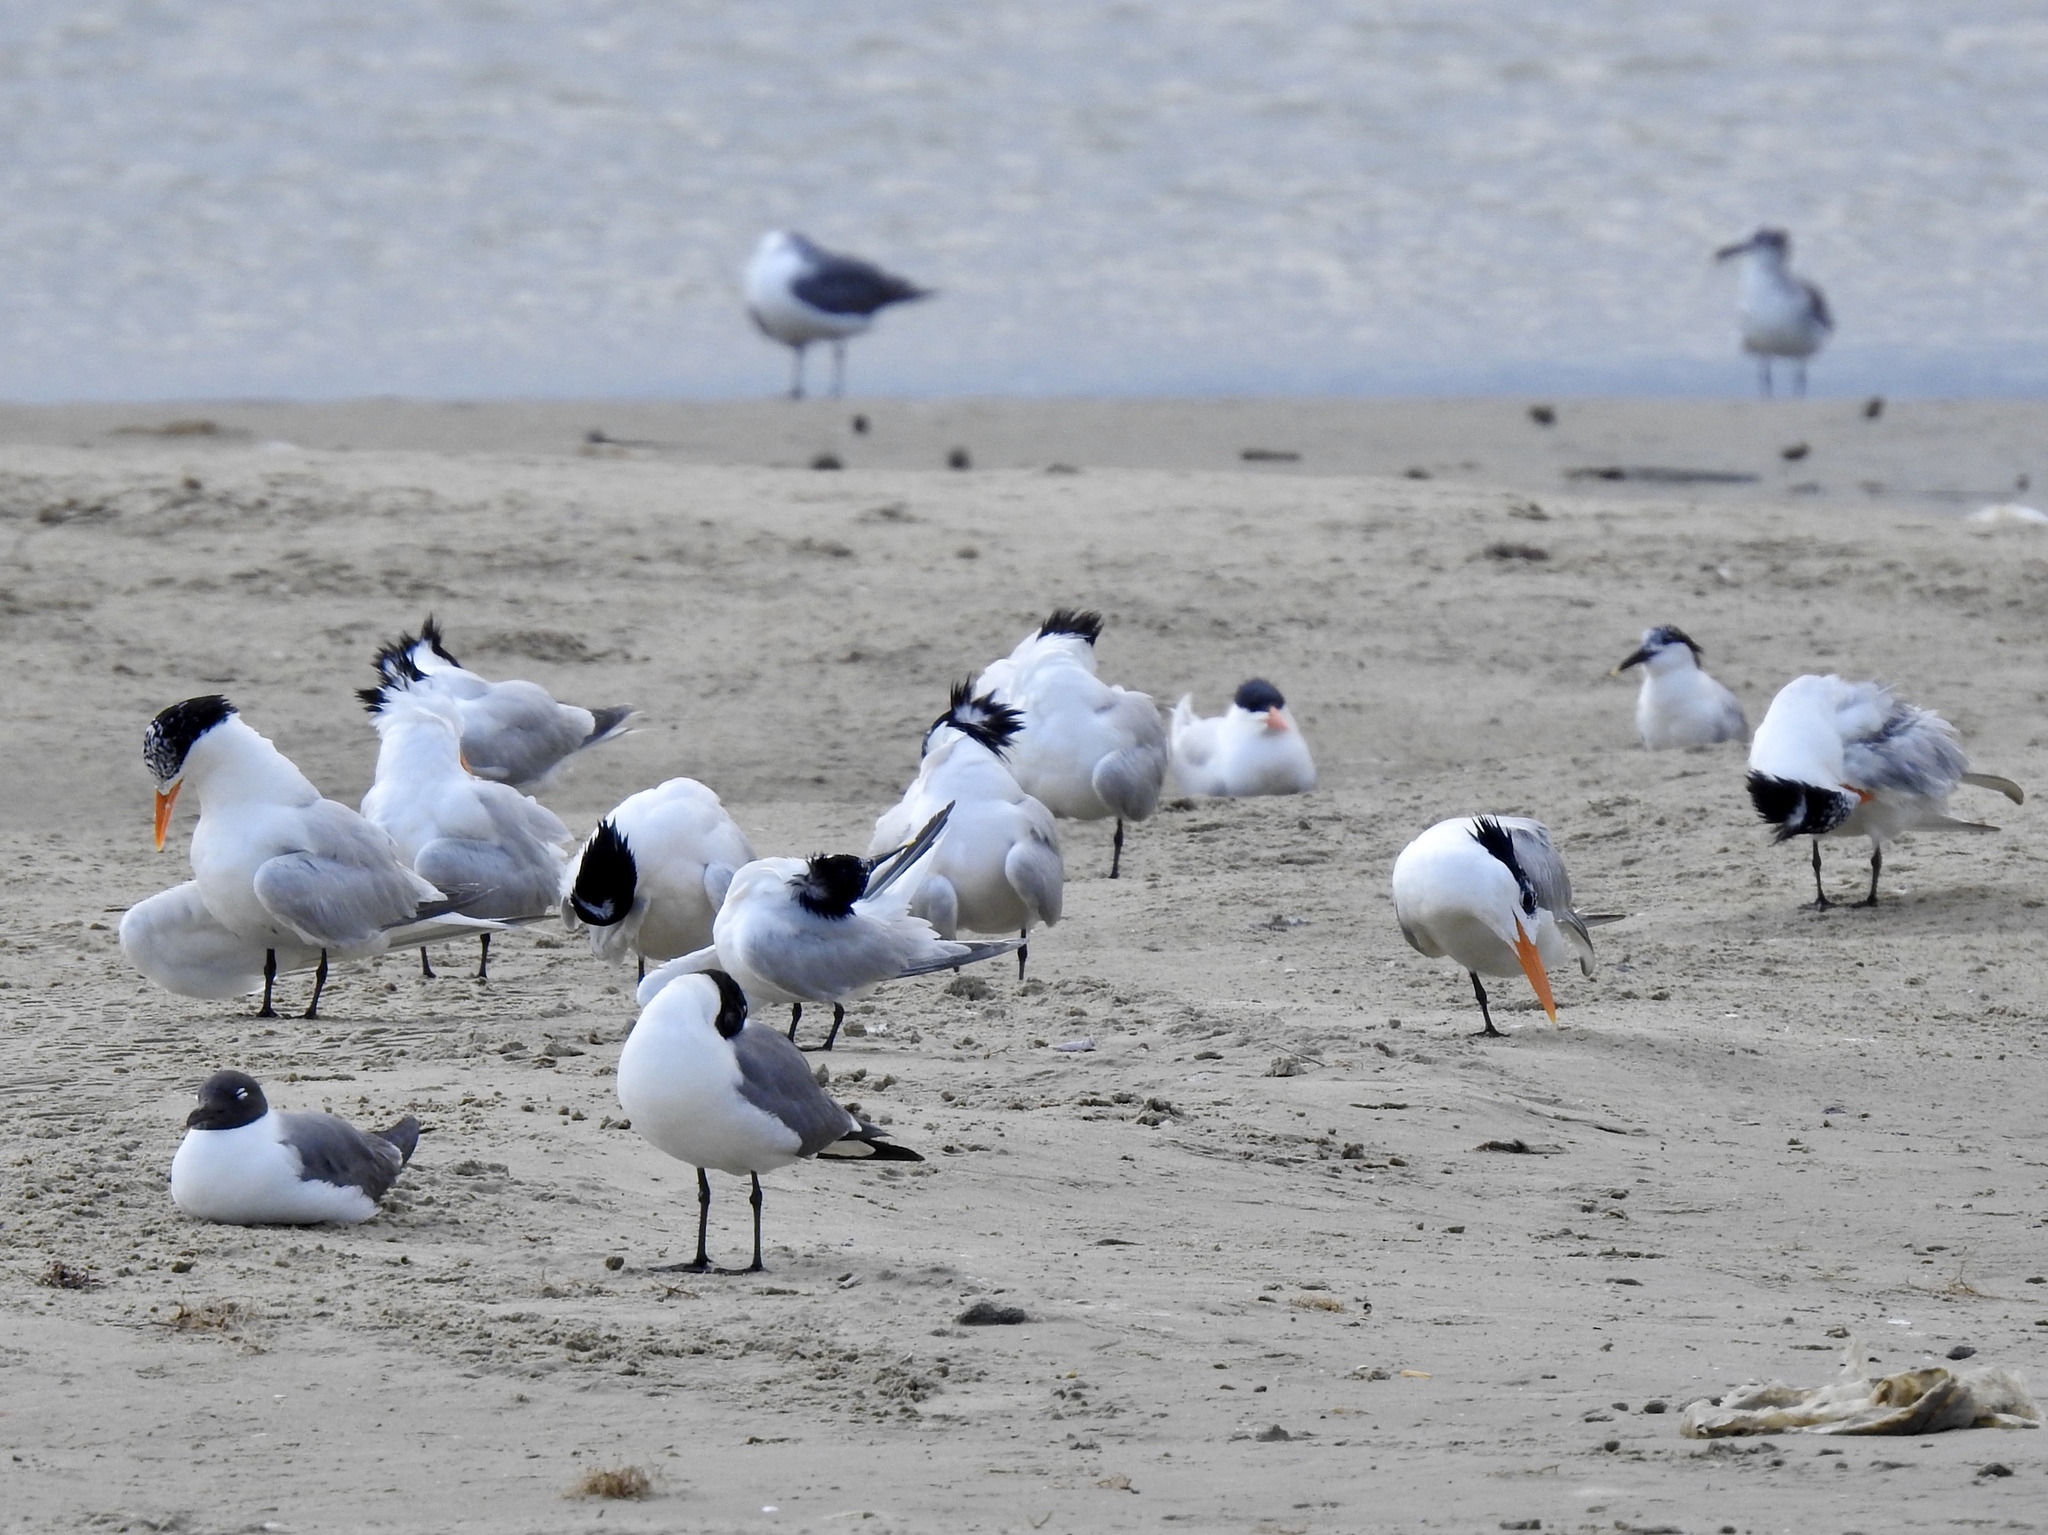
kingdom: Animalia
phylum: Chordata
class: Aves
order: Charadriiformes
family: Laridae
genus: Thalasseus
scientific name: Thalasseus maximus
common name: Royal tern
